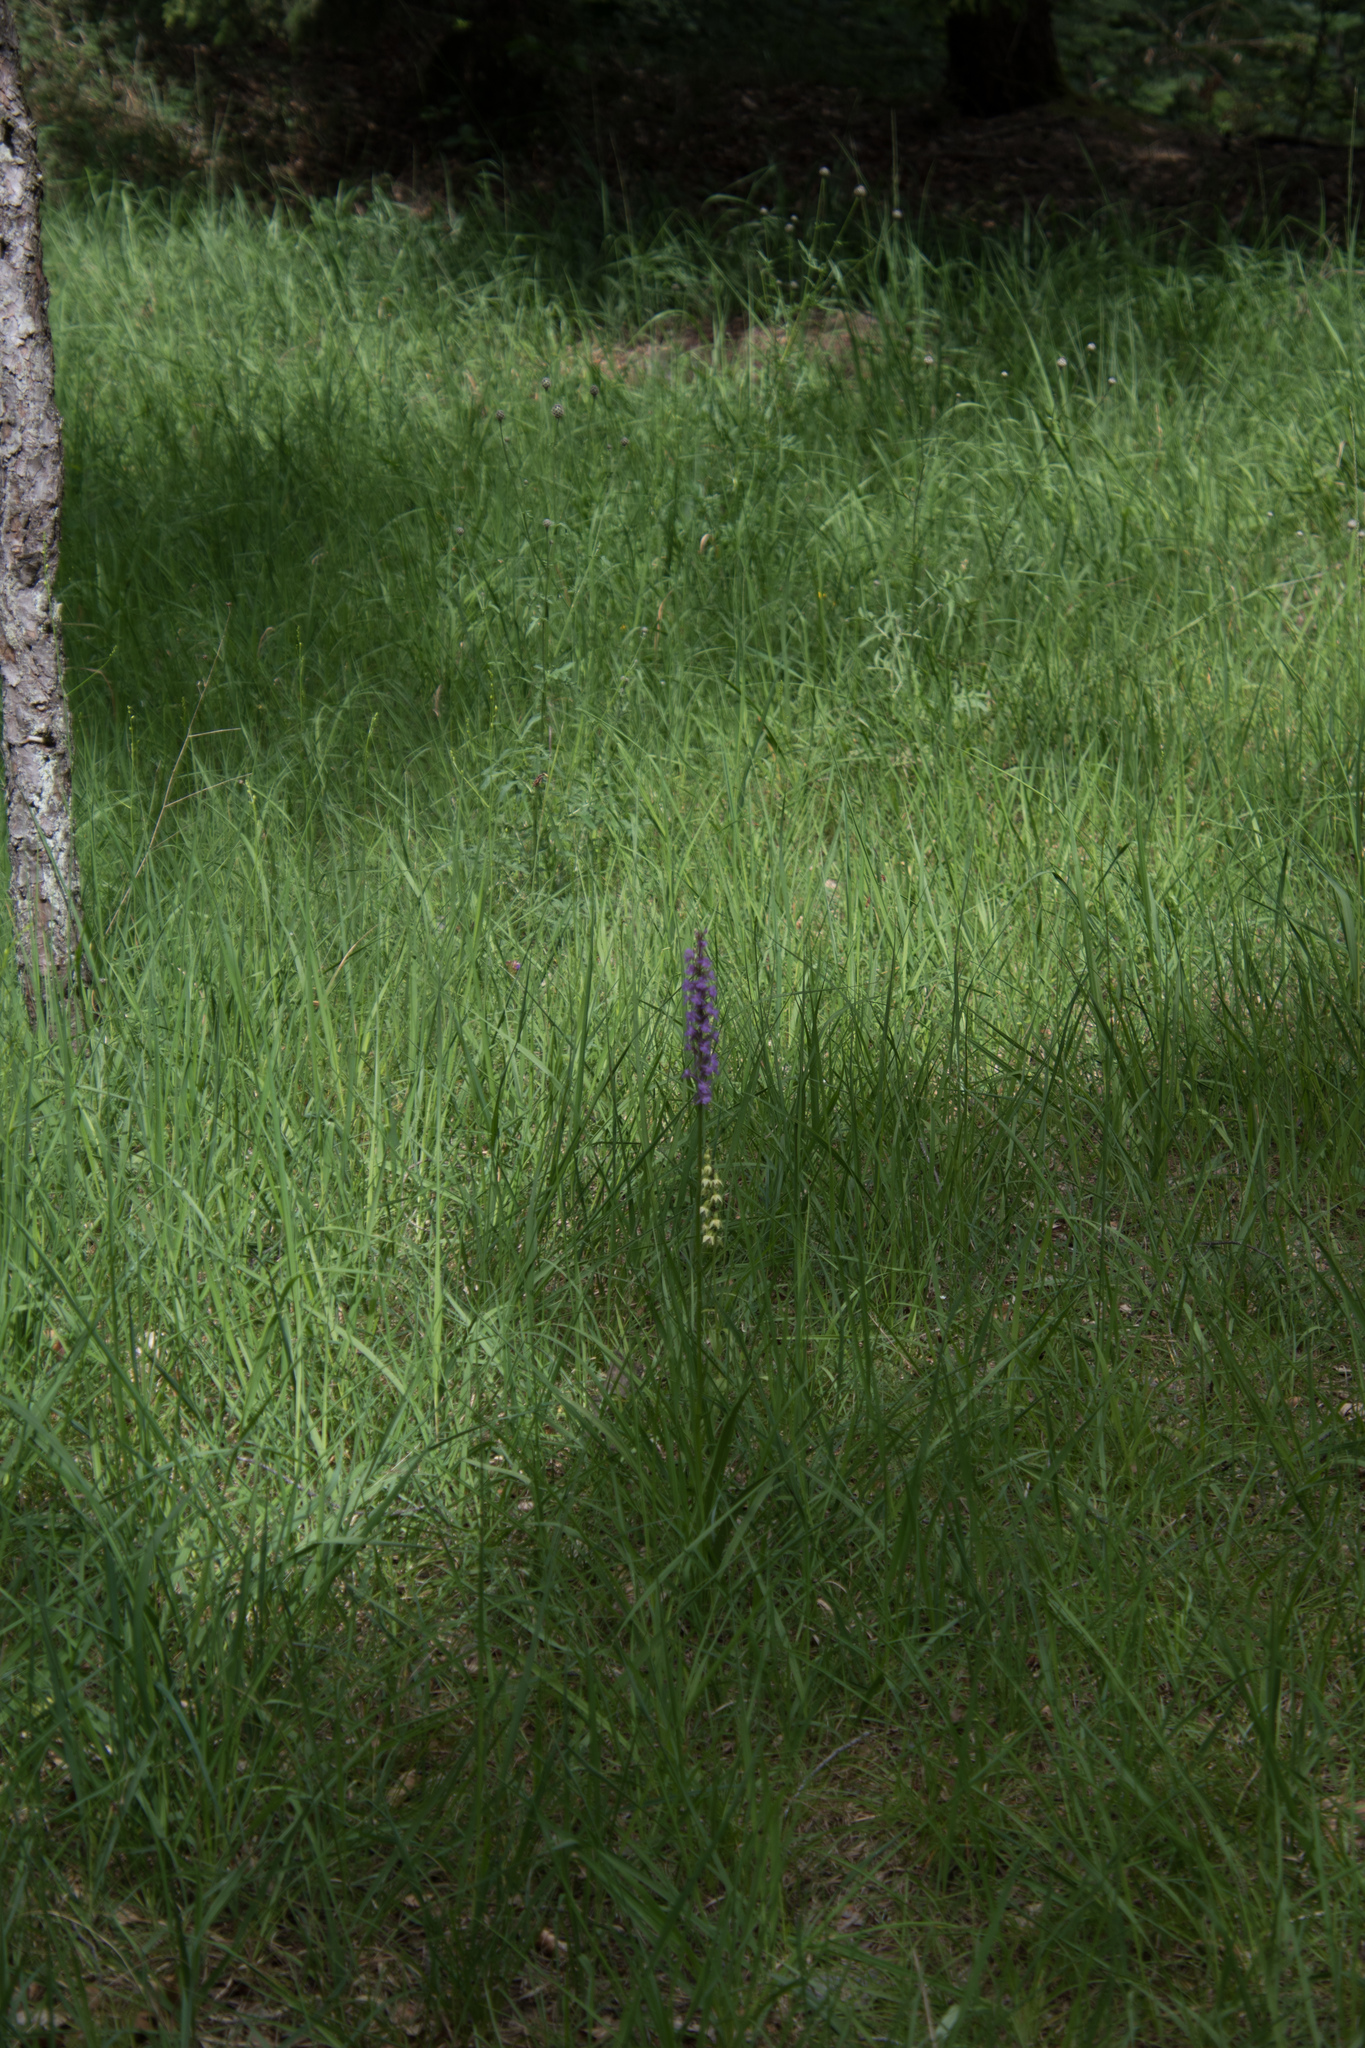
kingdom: Plantae
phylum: Tracheophyta
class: Liliopsida
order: Asparagales
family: Orchidaceae
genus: Gymnadenia
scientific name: Gymnadenia conopsea
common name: Fragrant orchid
